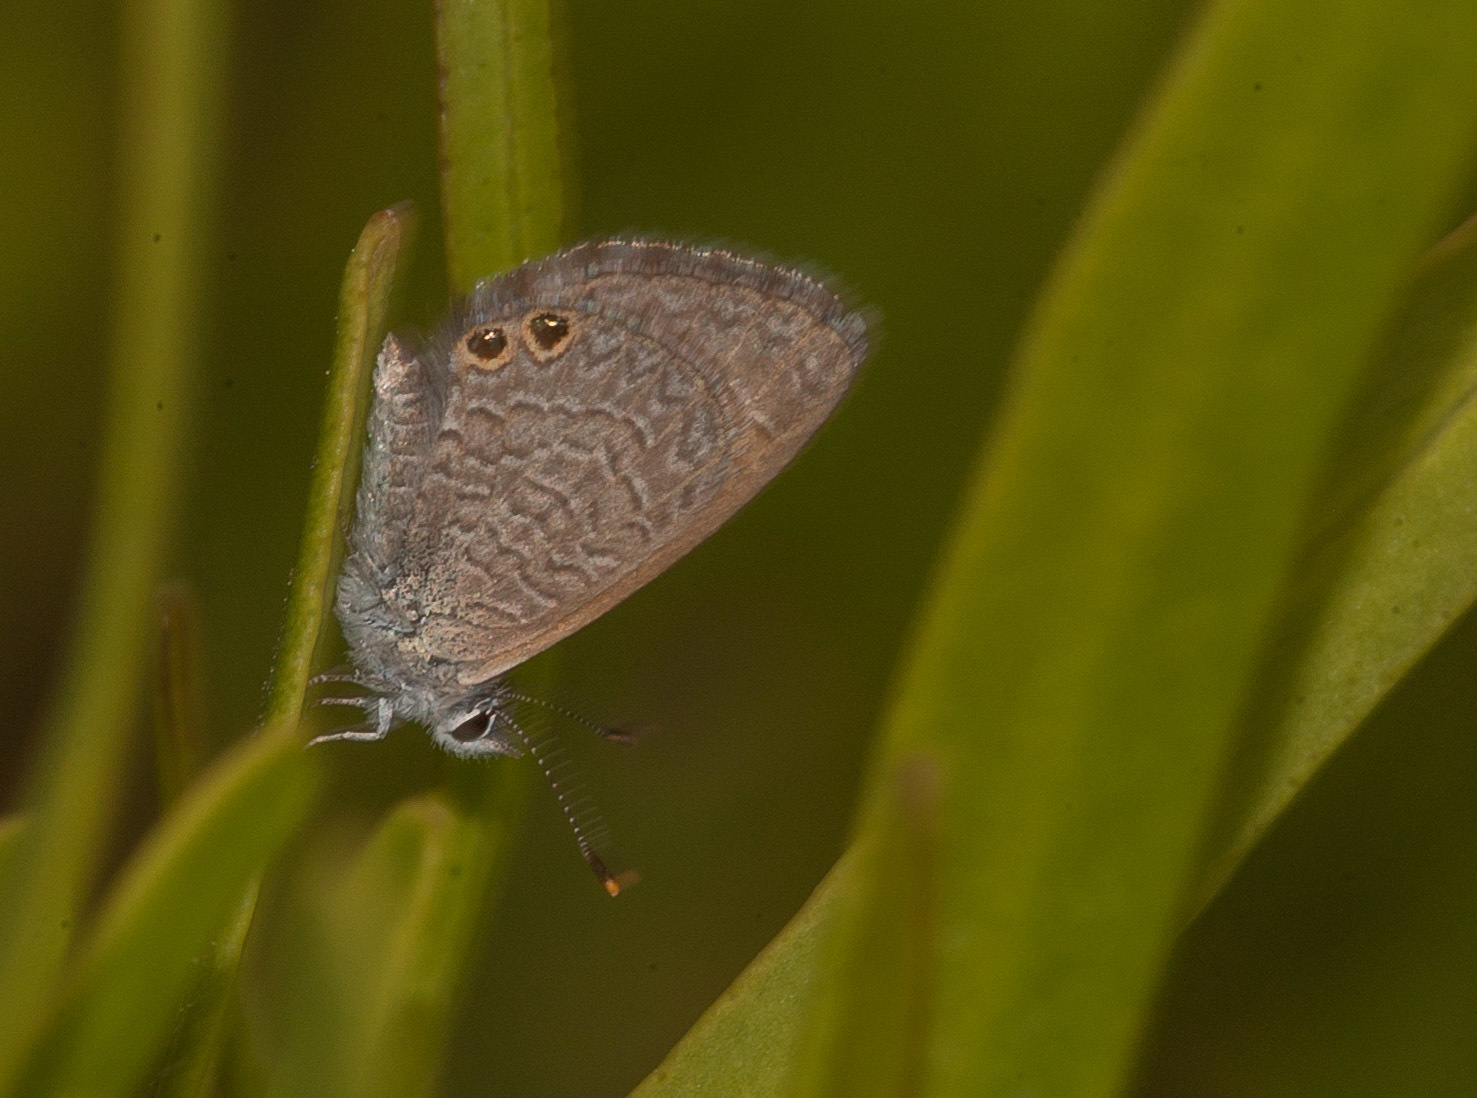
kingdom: Animalia
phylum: Arthropoda
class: Insecta
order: Lepidoptera
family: Lycaenidae
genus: Nacaduba
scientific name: Nacaduba biocellata
